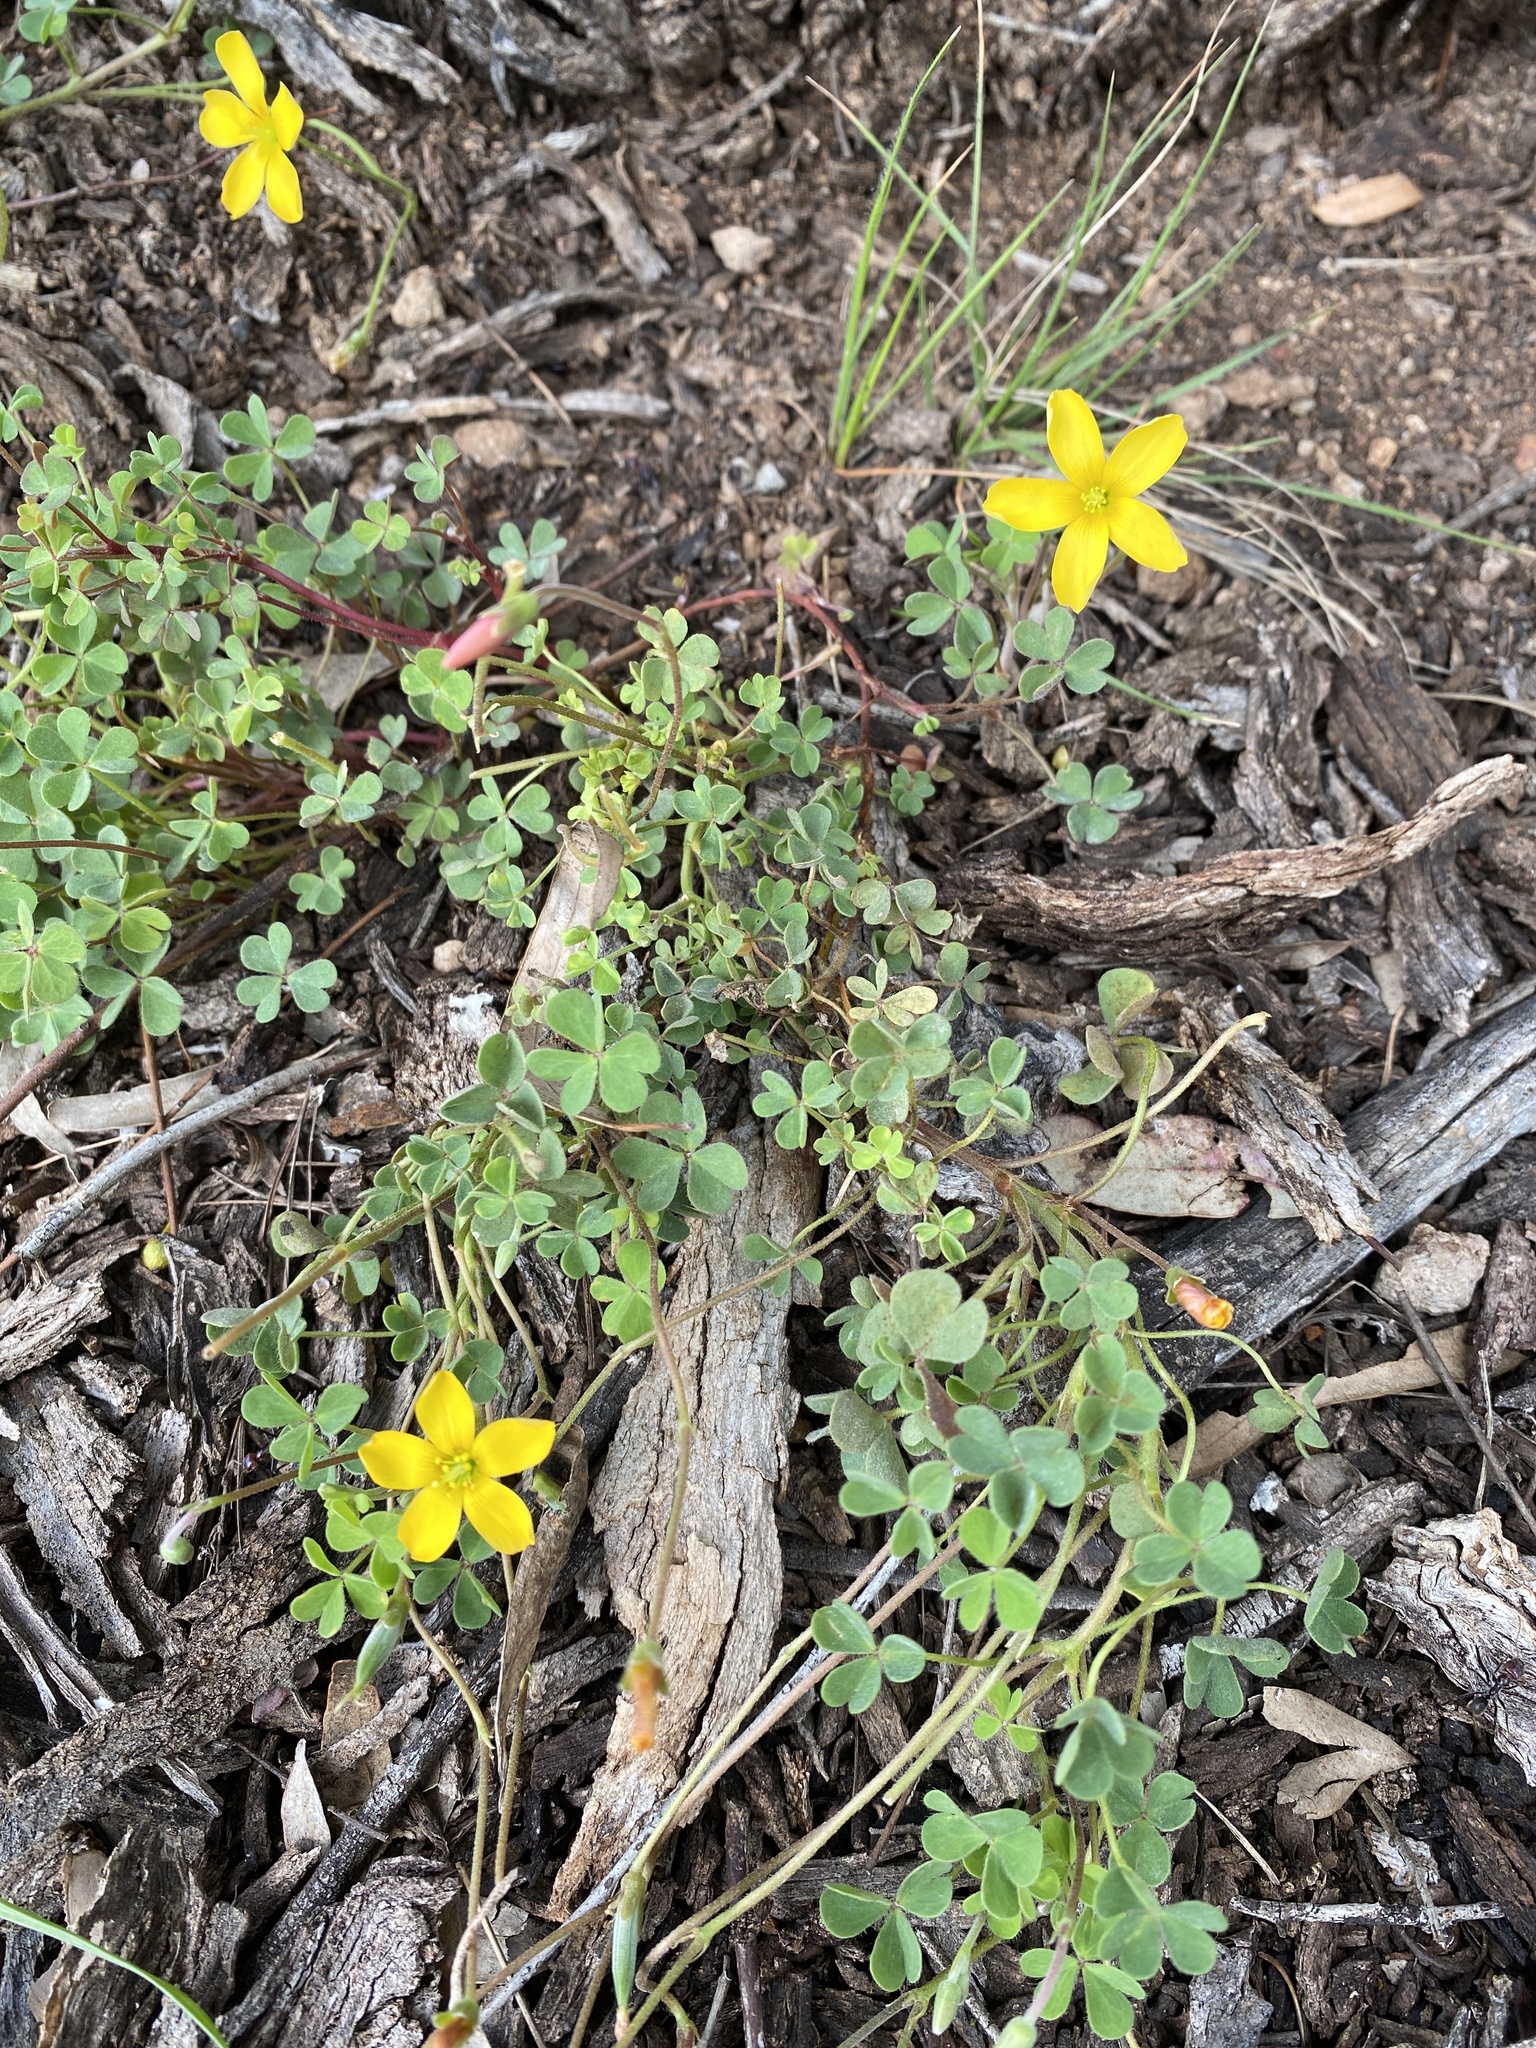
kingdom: Plantae
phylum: Tracheophyta
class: Magnoliopsida
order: Oxalidales
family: Oxalidaceae
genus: Oxalis
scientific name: Oxalis corniculata
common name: Procumbent yellow-sorrel
